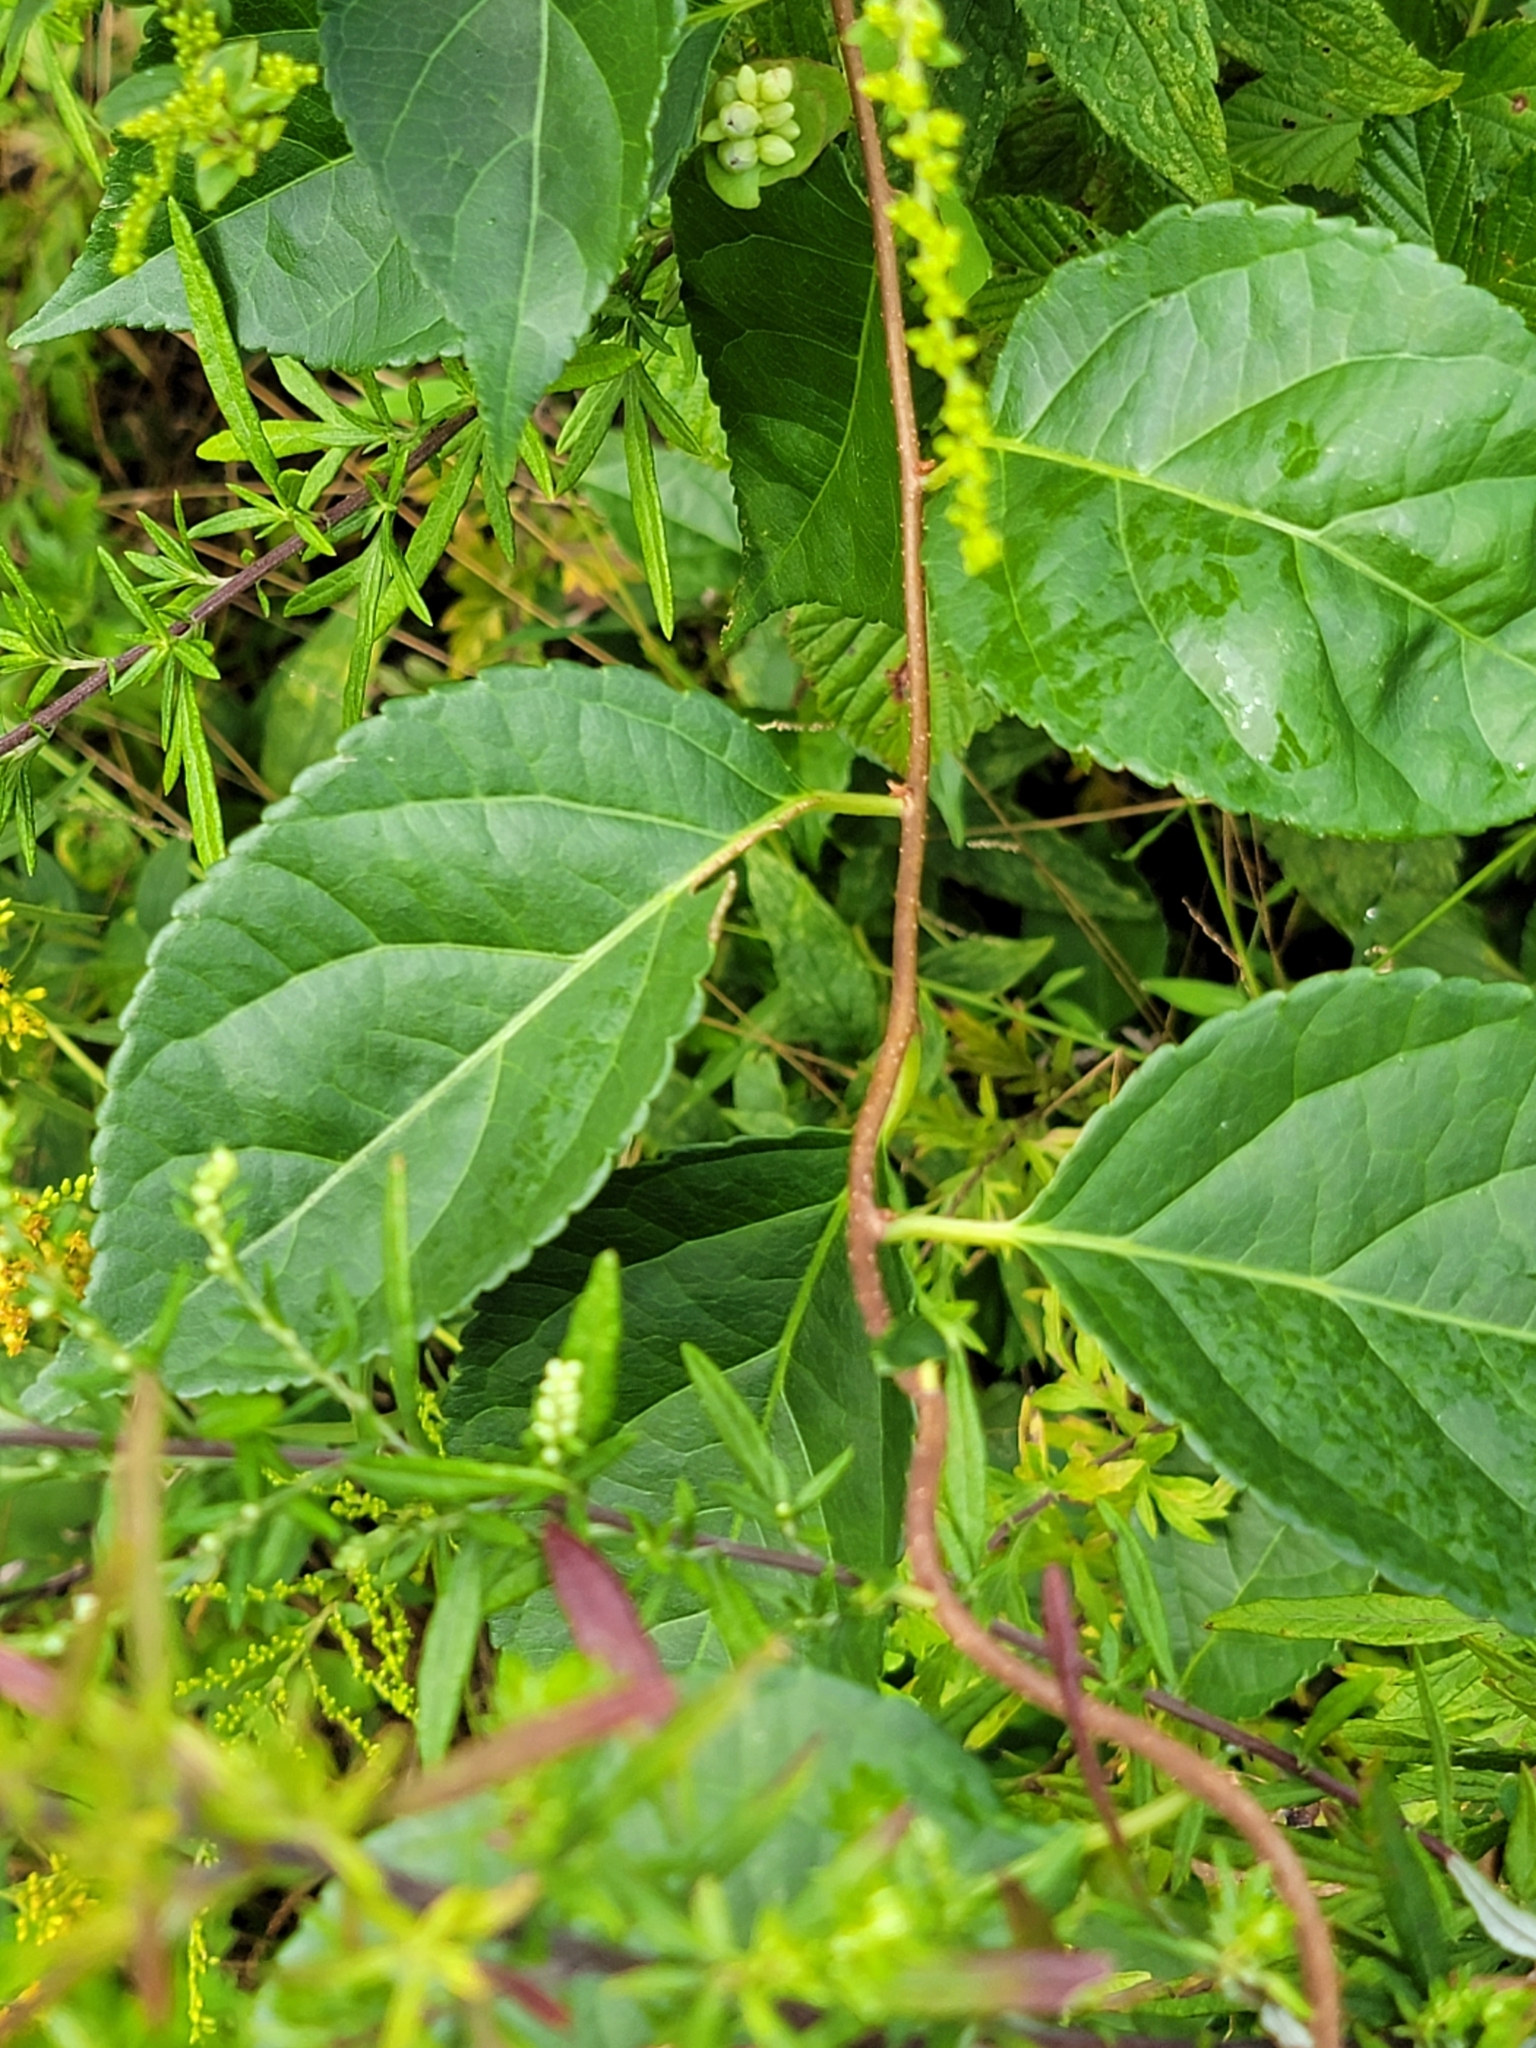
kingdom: Plantae
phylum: Tracheophyta
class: Magnoliopsida
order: Celastrales
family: Celastraceae
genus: Celastrus
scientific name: Celastrus orbiculatus
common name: Oriental bittersweet
